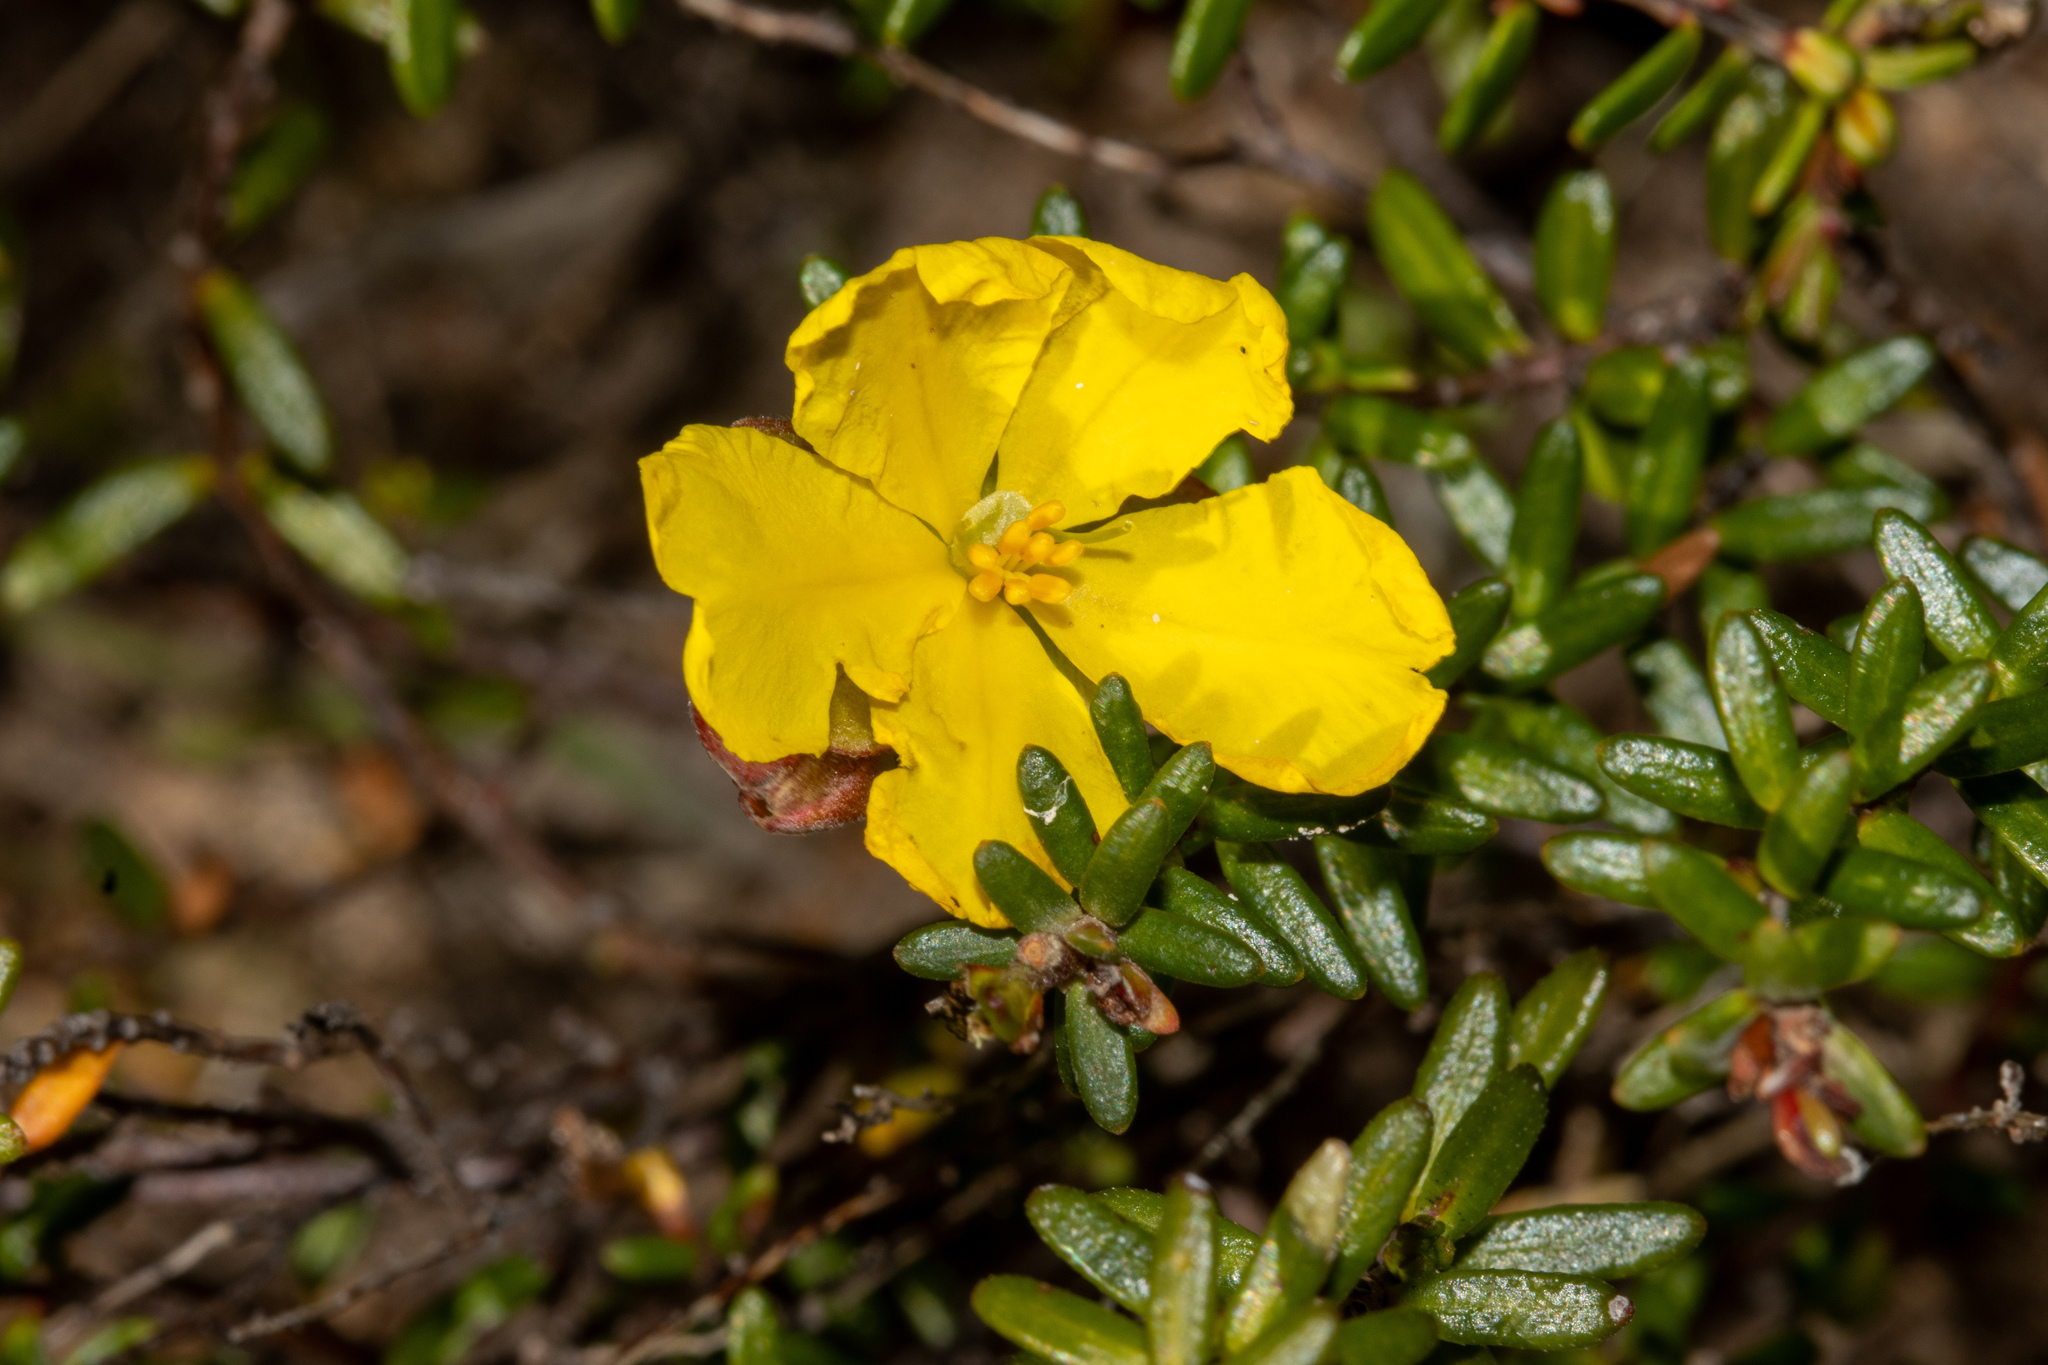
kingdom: Plantae
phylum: Tracheophyta
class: Magnoliopsida
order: Dilleniales
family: Dilleniaceae
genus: Hibbertia
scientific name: Hibbertia platyphylla
